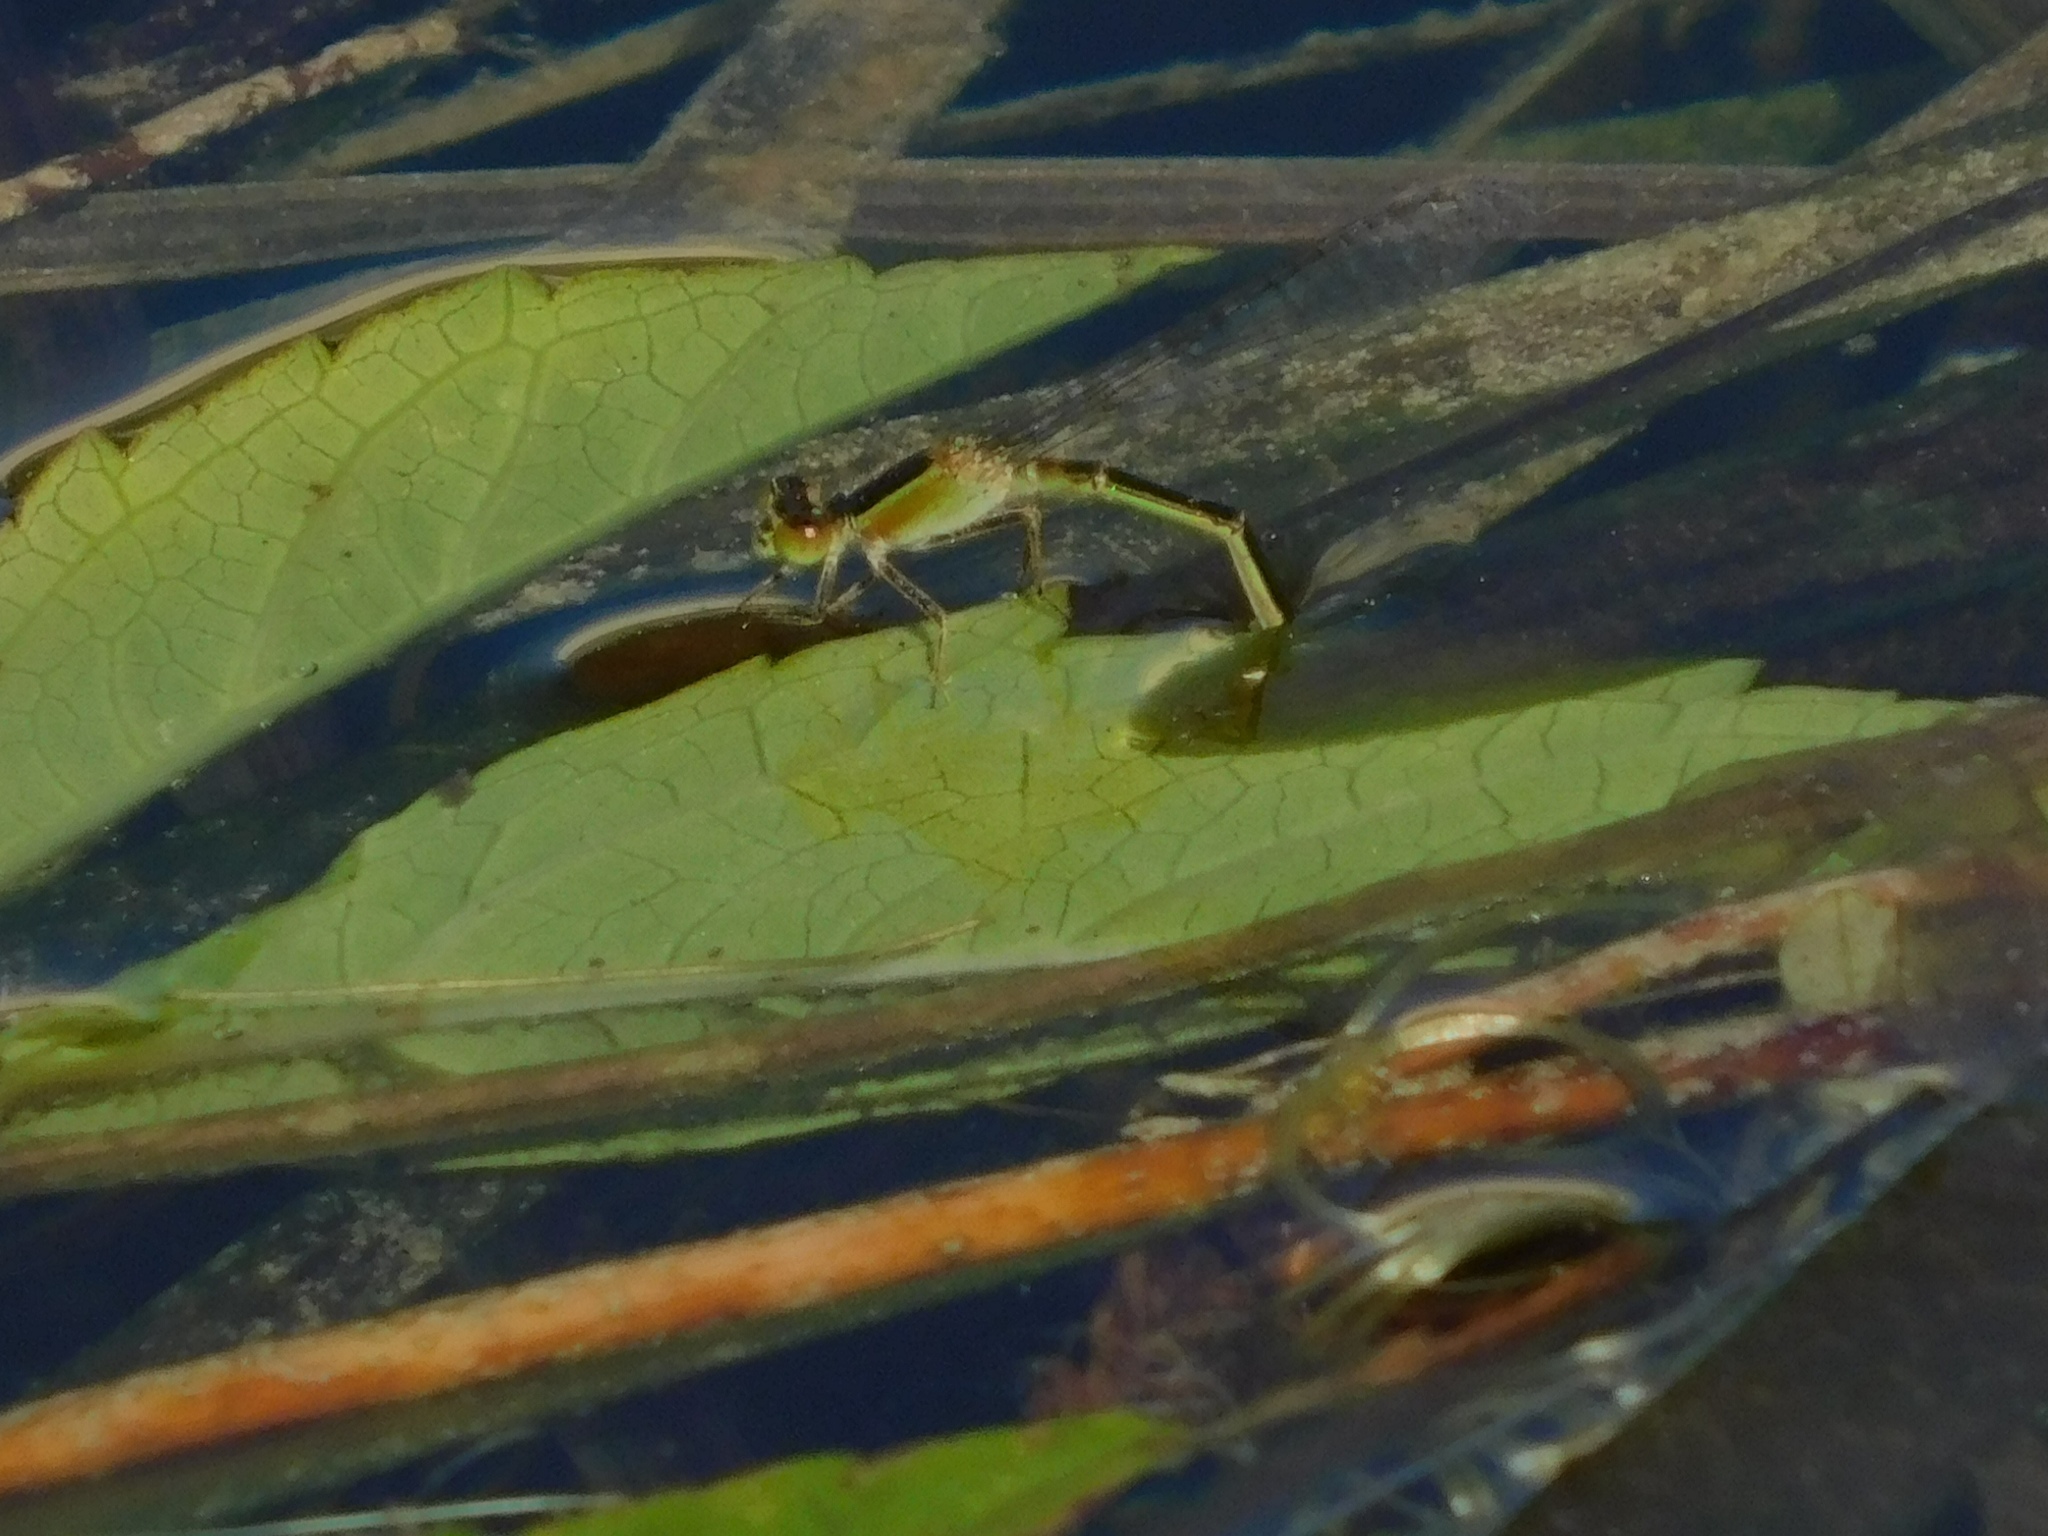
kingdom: Animalia
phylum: Arthropoda
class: Insecta
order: Odonata
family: Coenagrionidae
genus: Ischnura
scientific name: Ischnura ramburii
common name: Rambur's forktail
